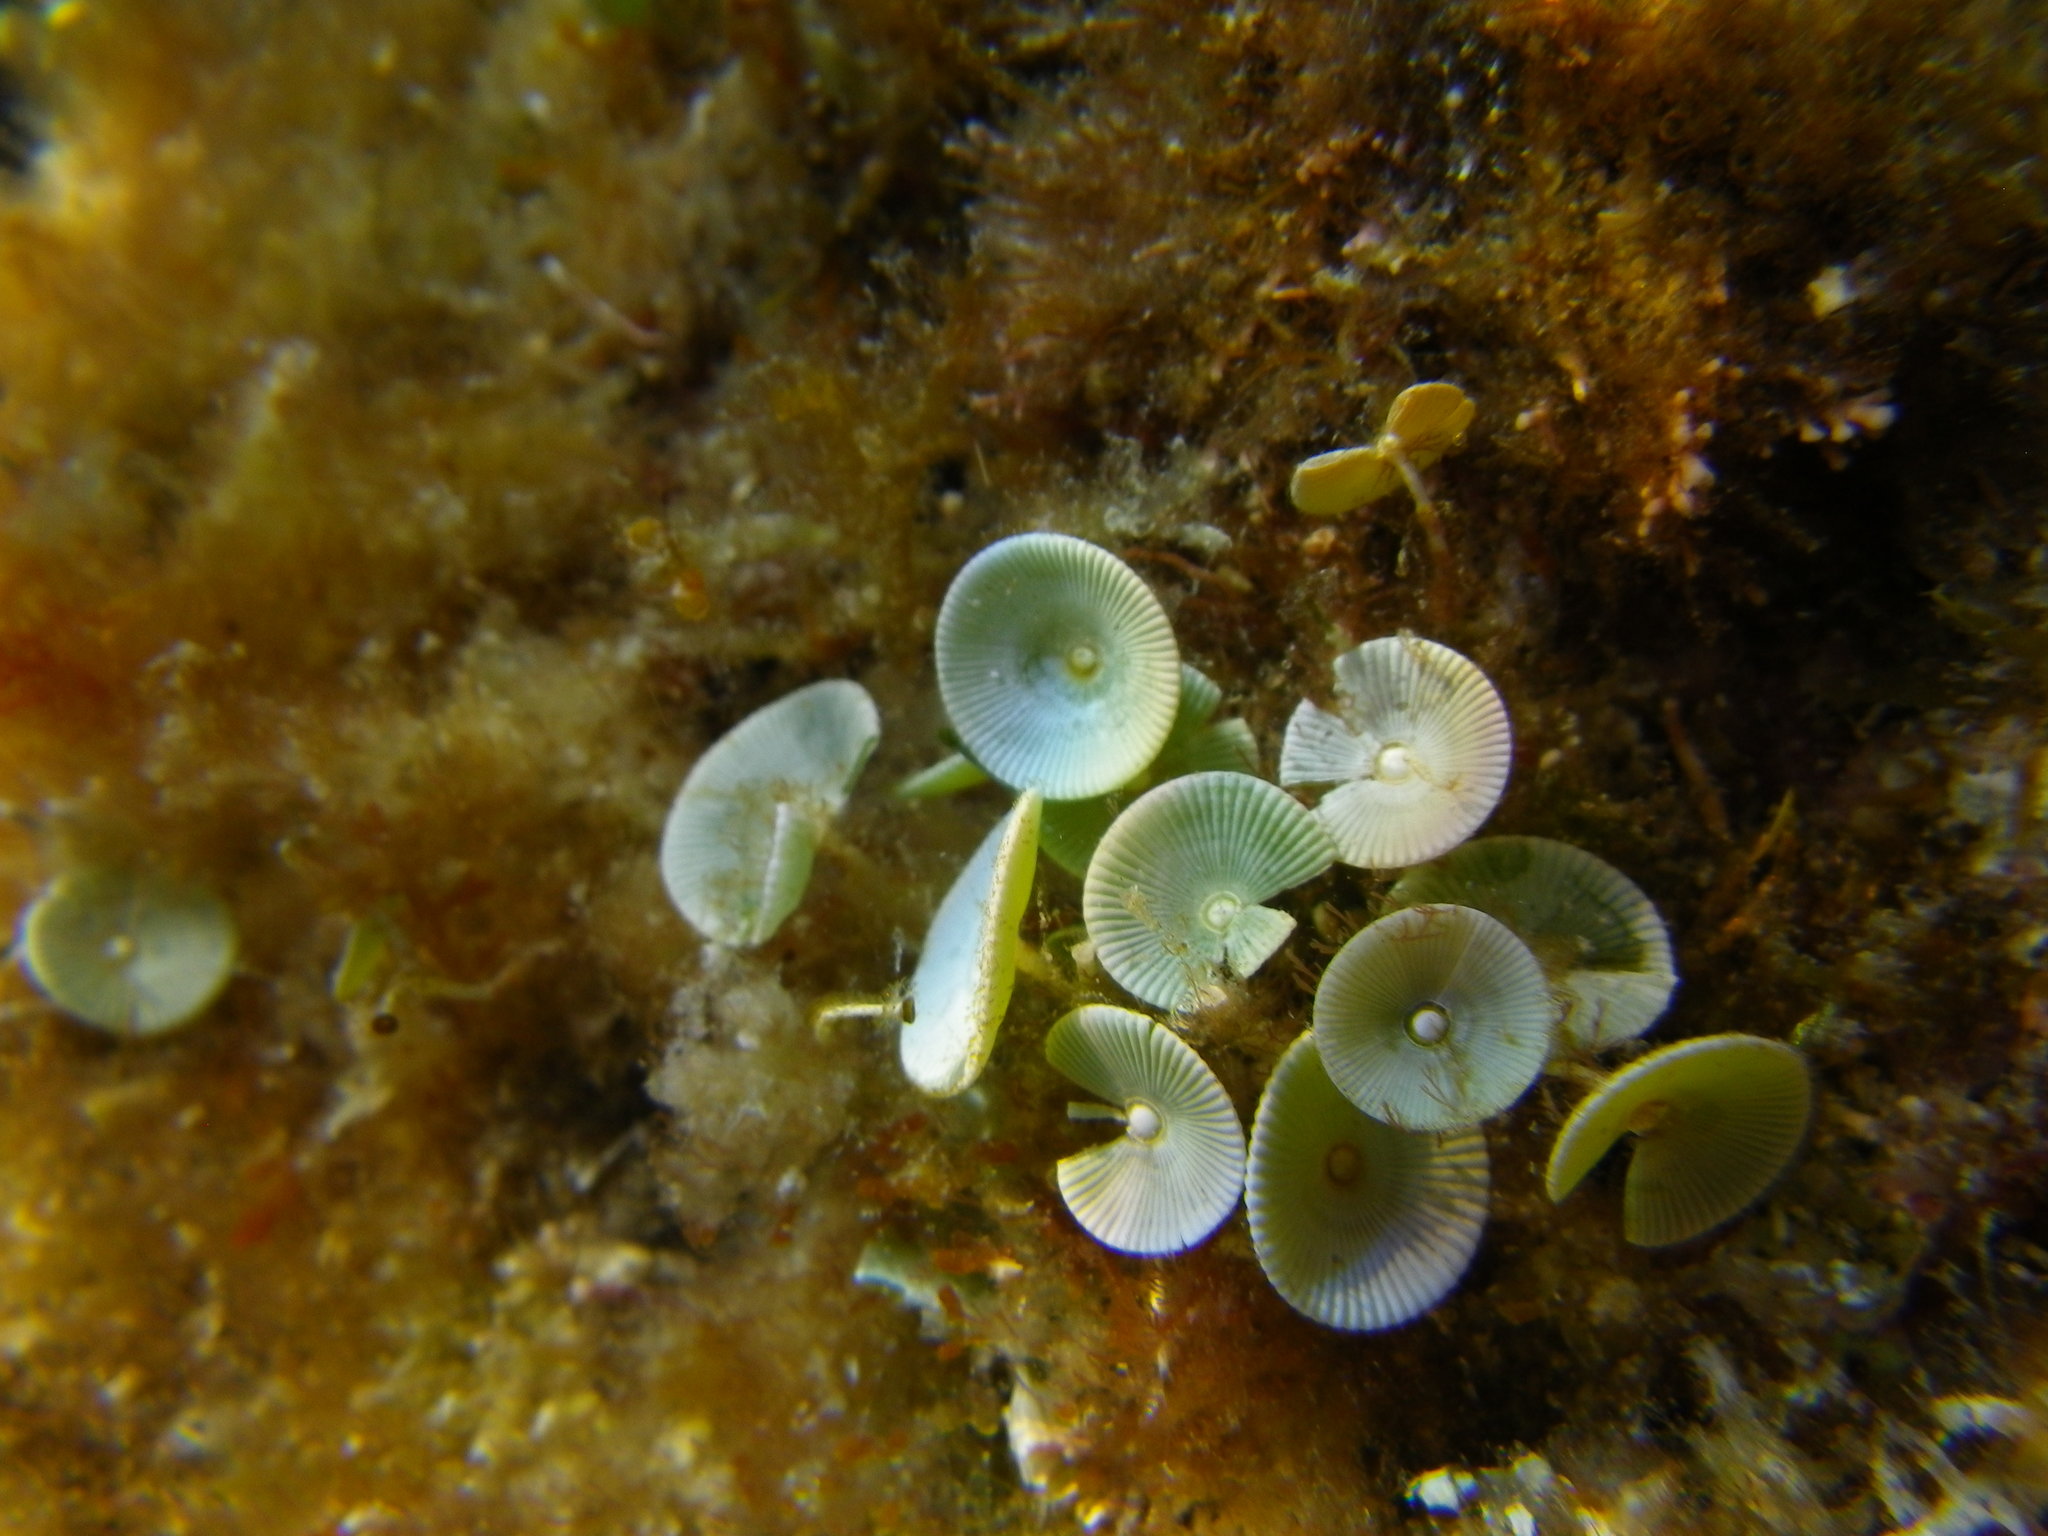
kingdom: Plantae
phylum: Chlorophyta
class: Ulvophyceae
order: Dasycladales
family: Polyphysaceae
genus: Acetabularia
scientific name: Acetabularia acetabulum
